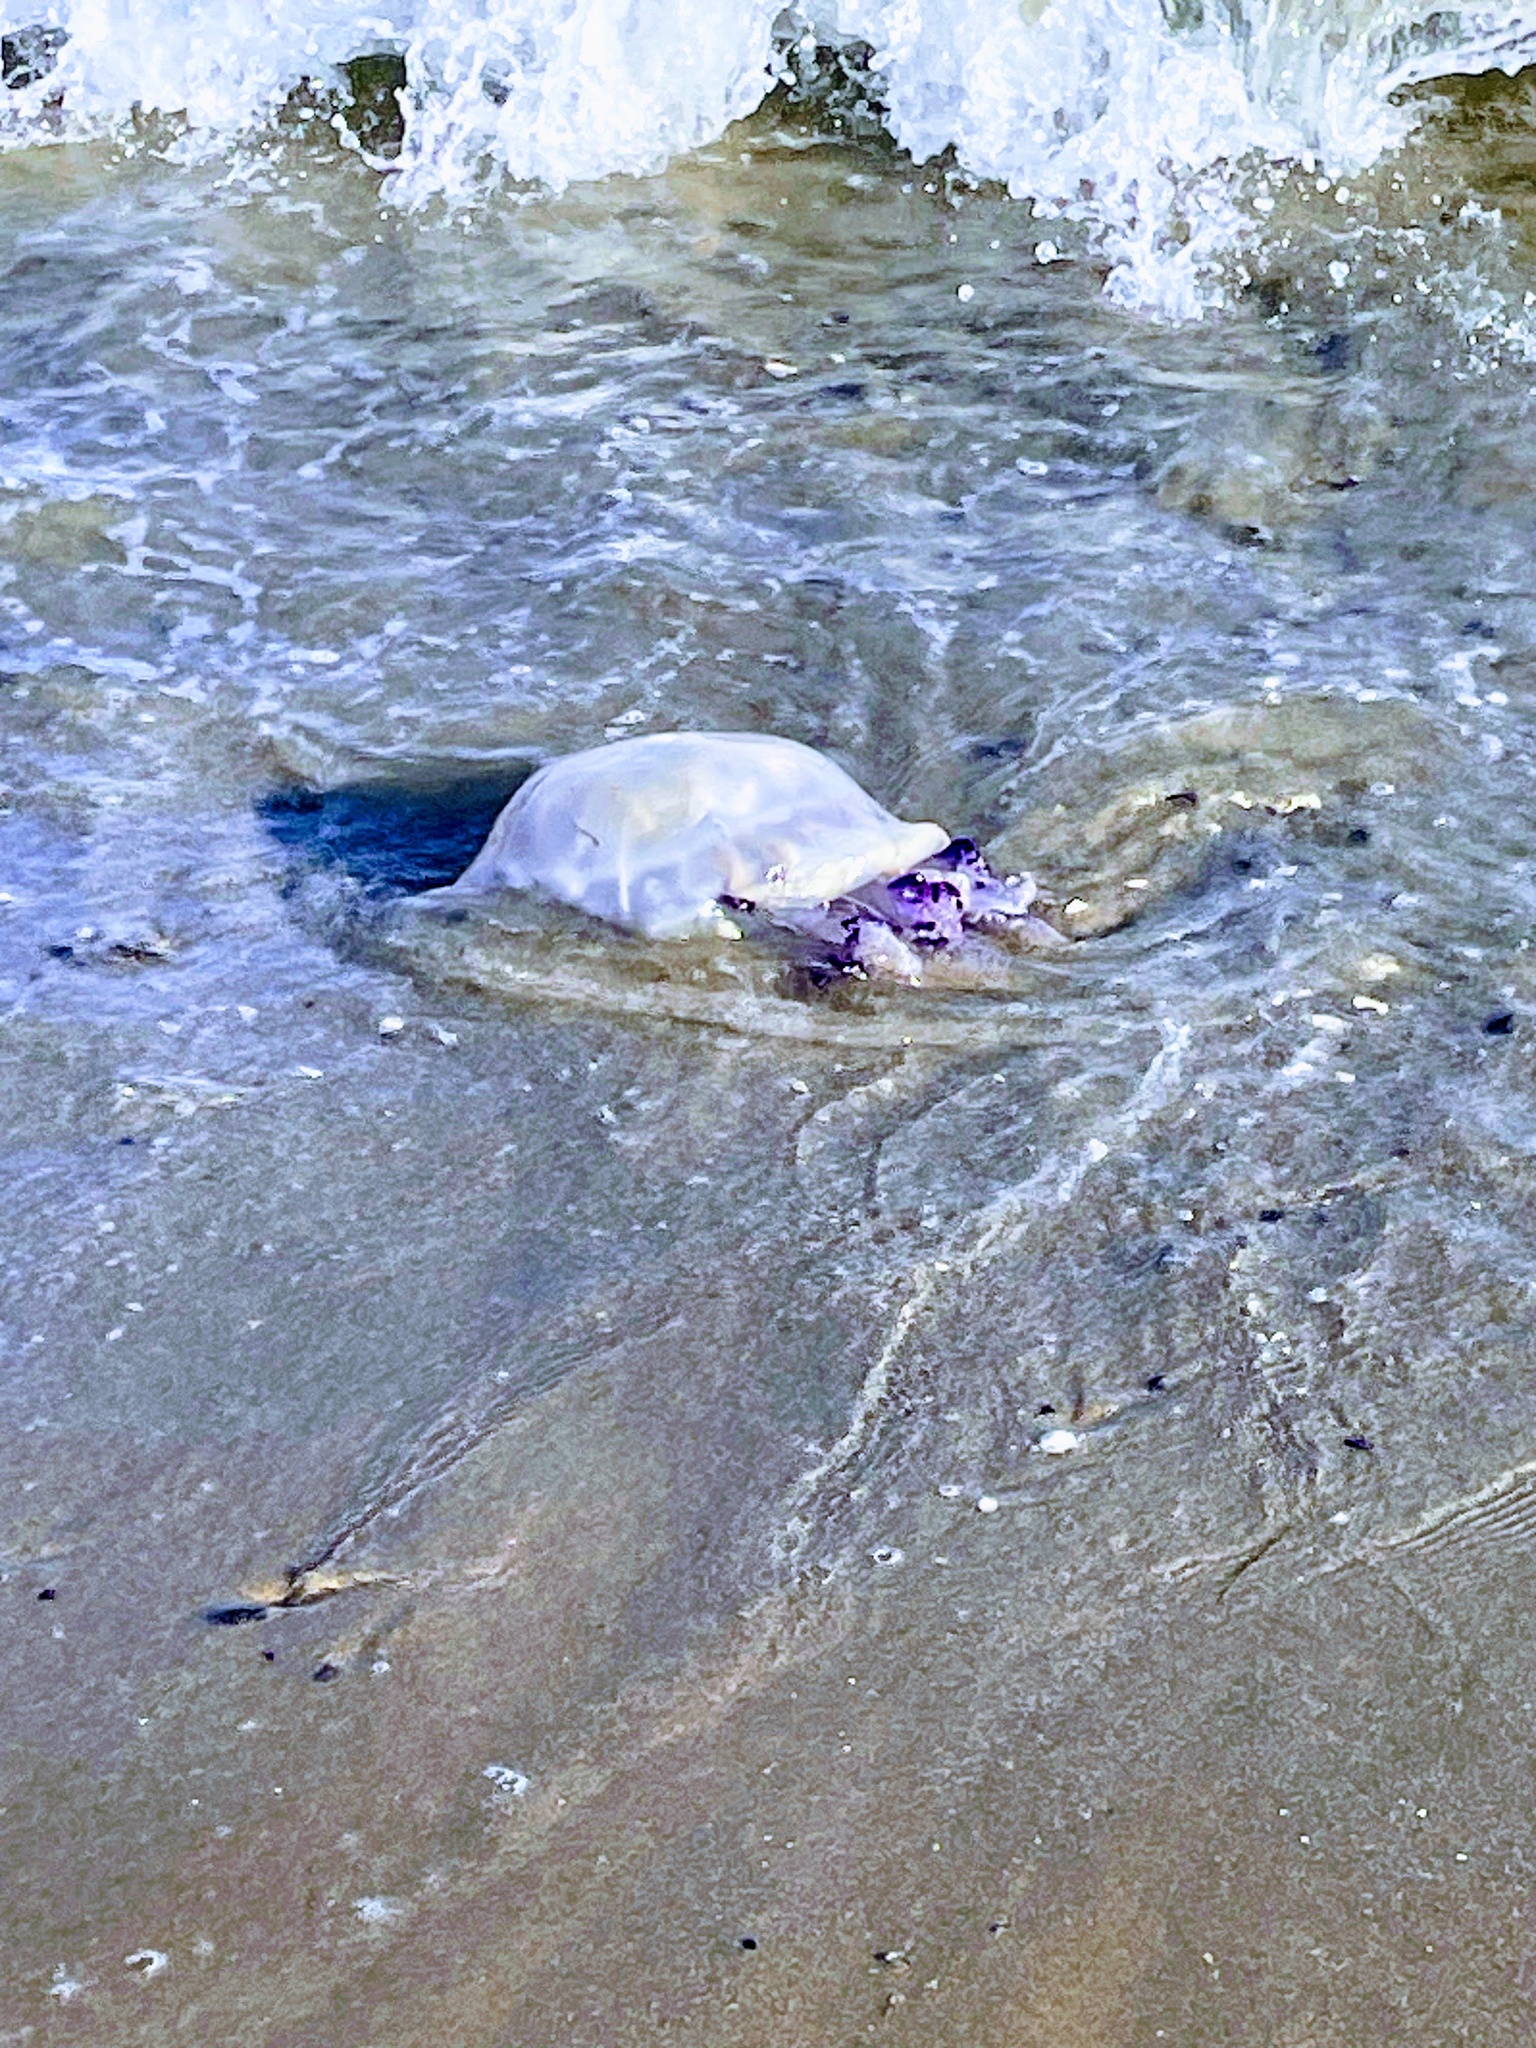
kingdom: Animalia
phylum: Cnidaria
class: Scyphozoa
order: Rhizostomeae
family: Rhizostomatidae
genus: Rhizostoma
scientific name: Rhizostoma pulmo
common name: Barrel jellyfish
